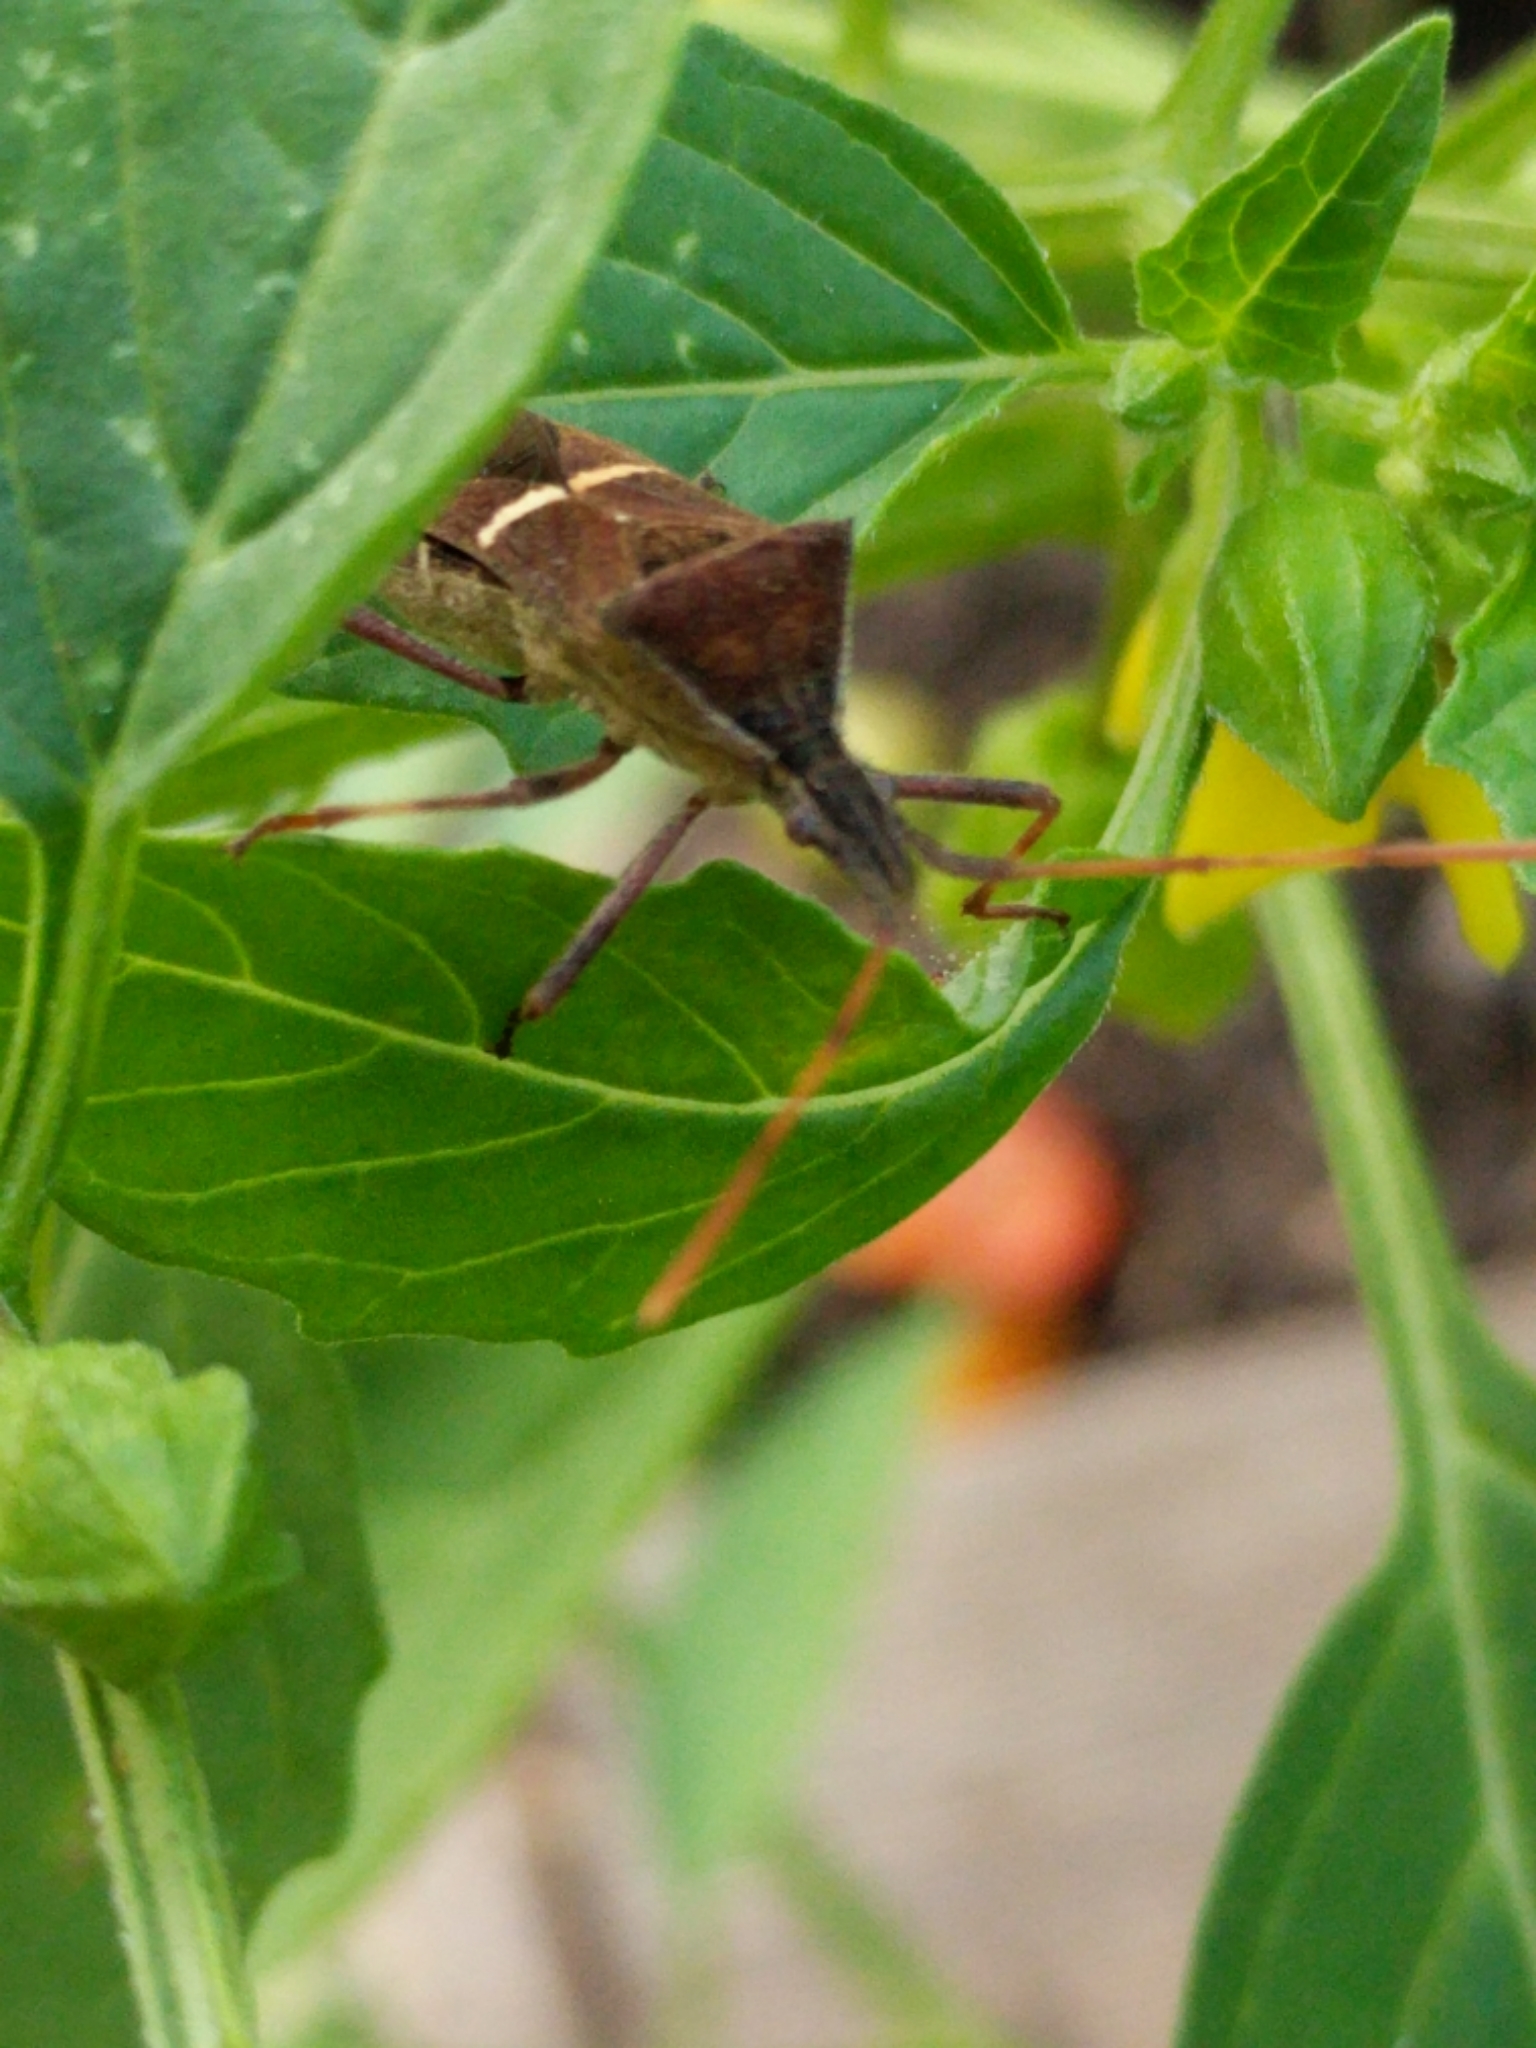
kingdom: Animalia
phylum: Arthropoda
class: Insecta
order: Hemiptera
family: Coreidae
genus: Leptoglossus
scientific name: Leptoglossus phyllopus
